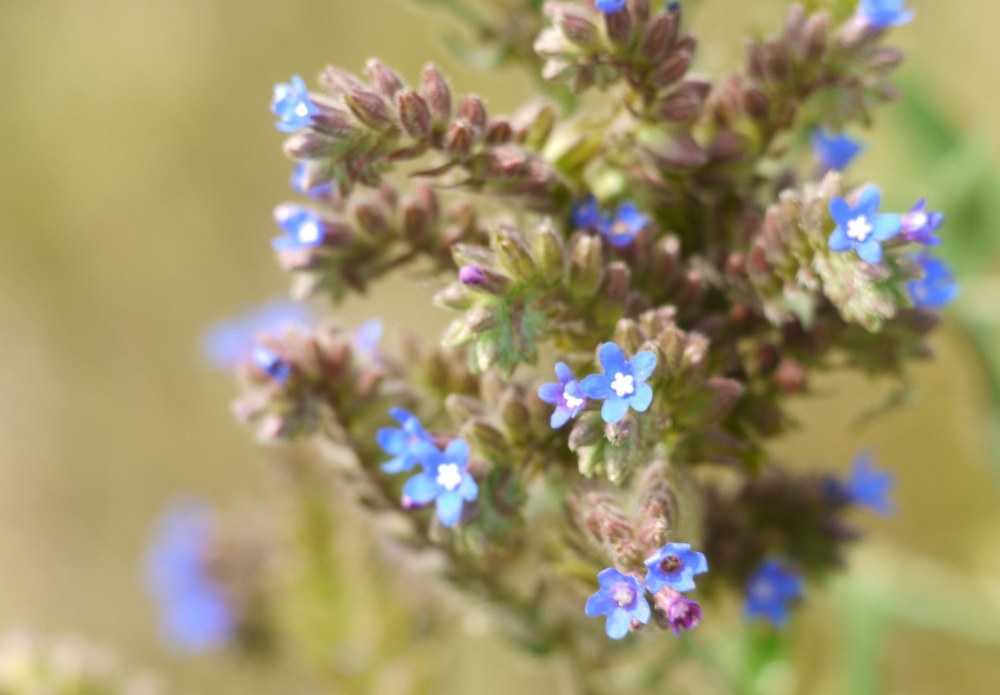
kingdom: Plantae
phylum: Tracheophyta
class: Magnoliopsida
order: Boraginales
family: Boraginaceae
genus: Anchusa
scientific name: Anchusa officinalis
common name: Alkanet
